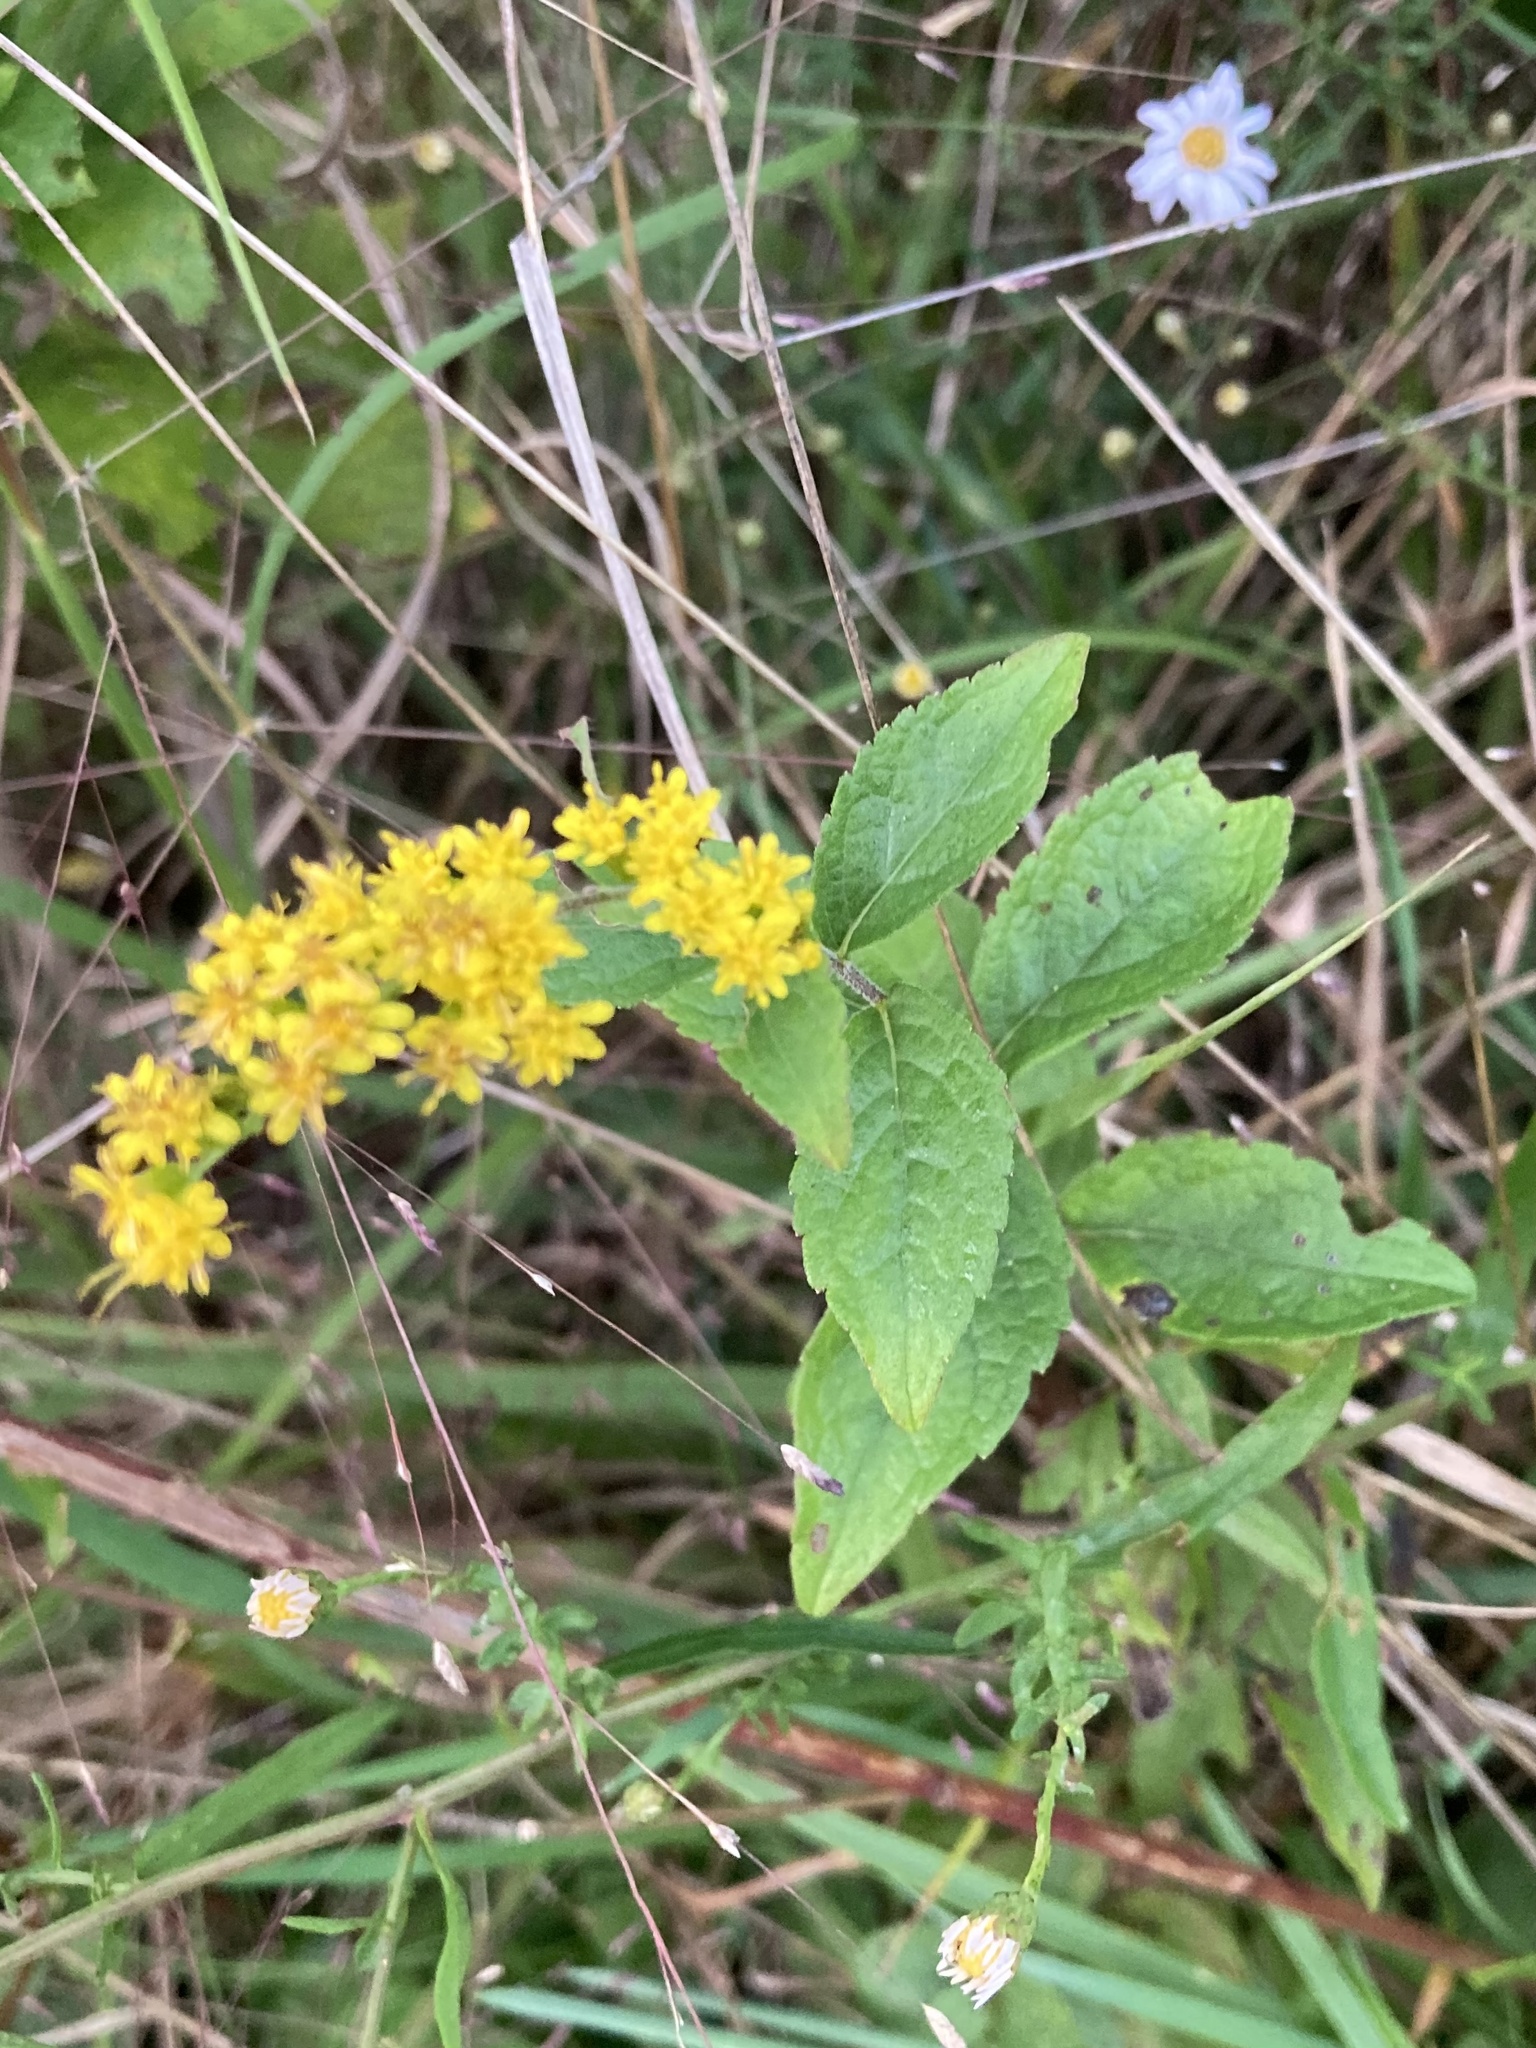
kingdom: Plantae
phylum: Tracheophyta
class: Magnoliopsida
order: Asterales
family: Asteraceae
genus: Solidago
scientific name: Solidago rugosa
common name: Rough-stemmed goldenrod
